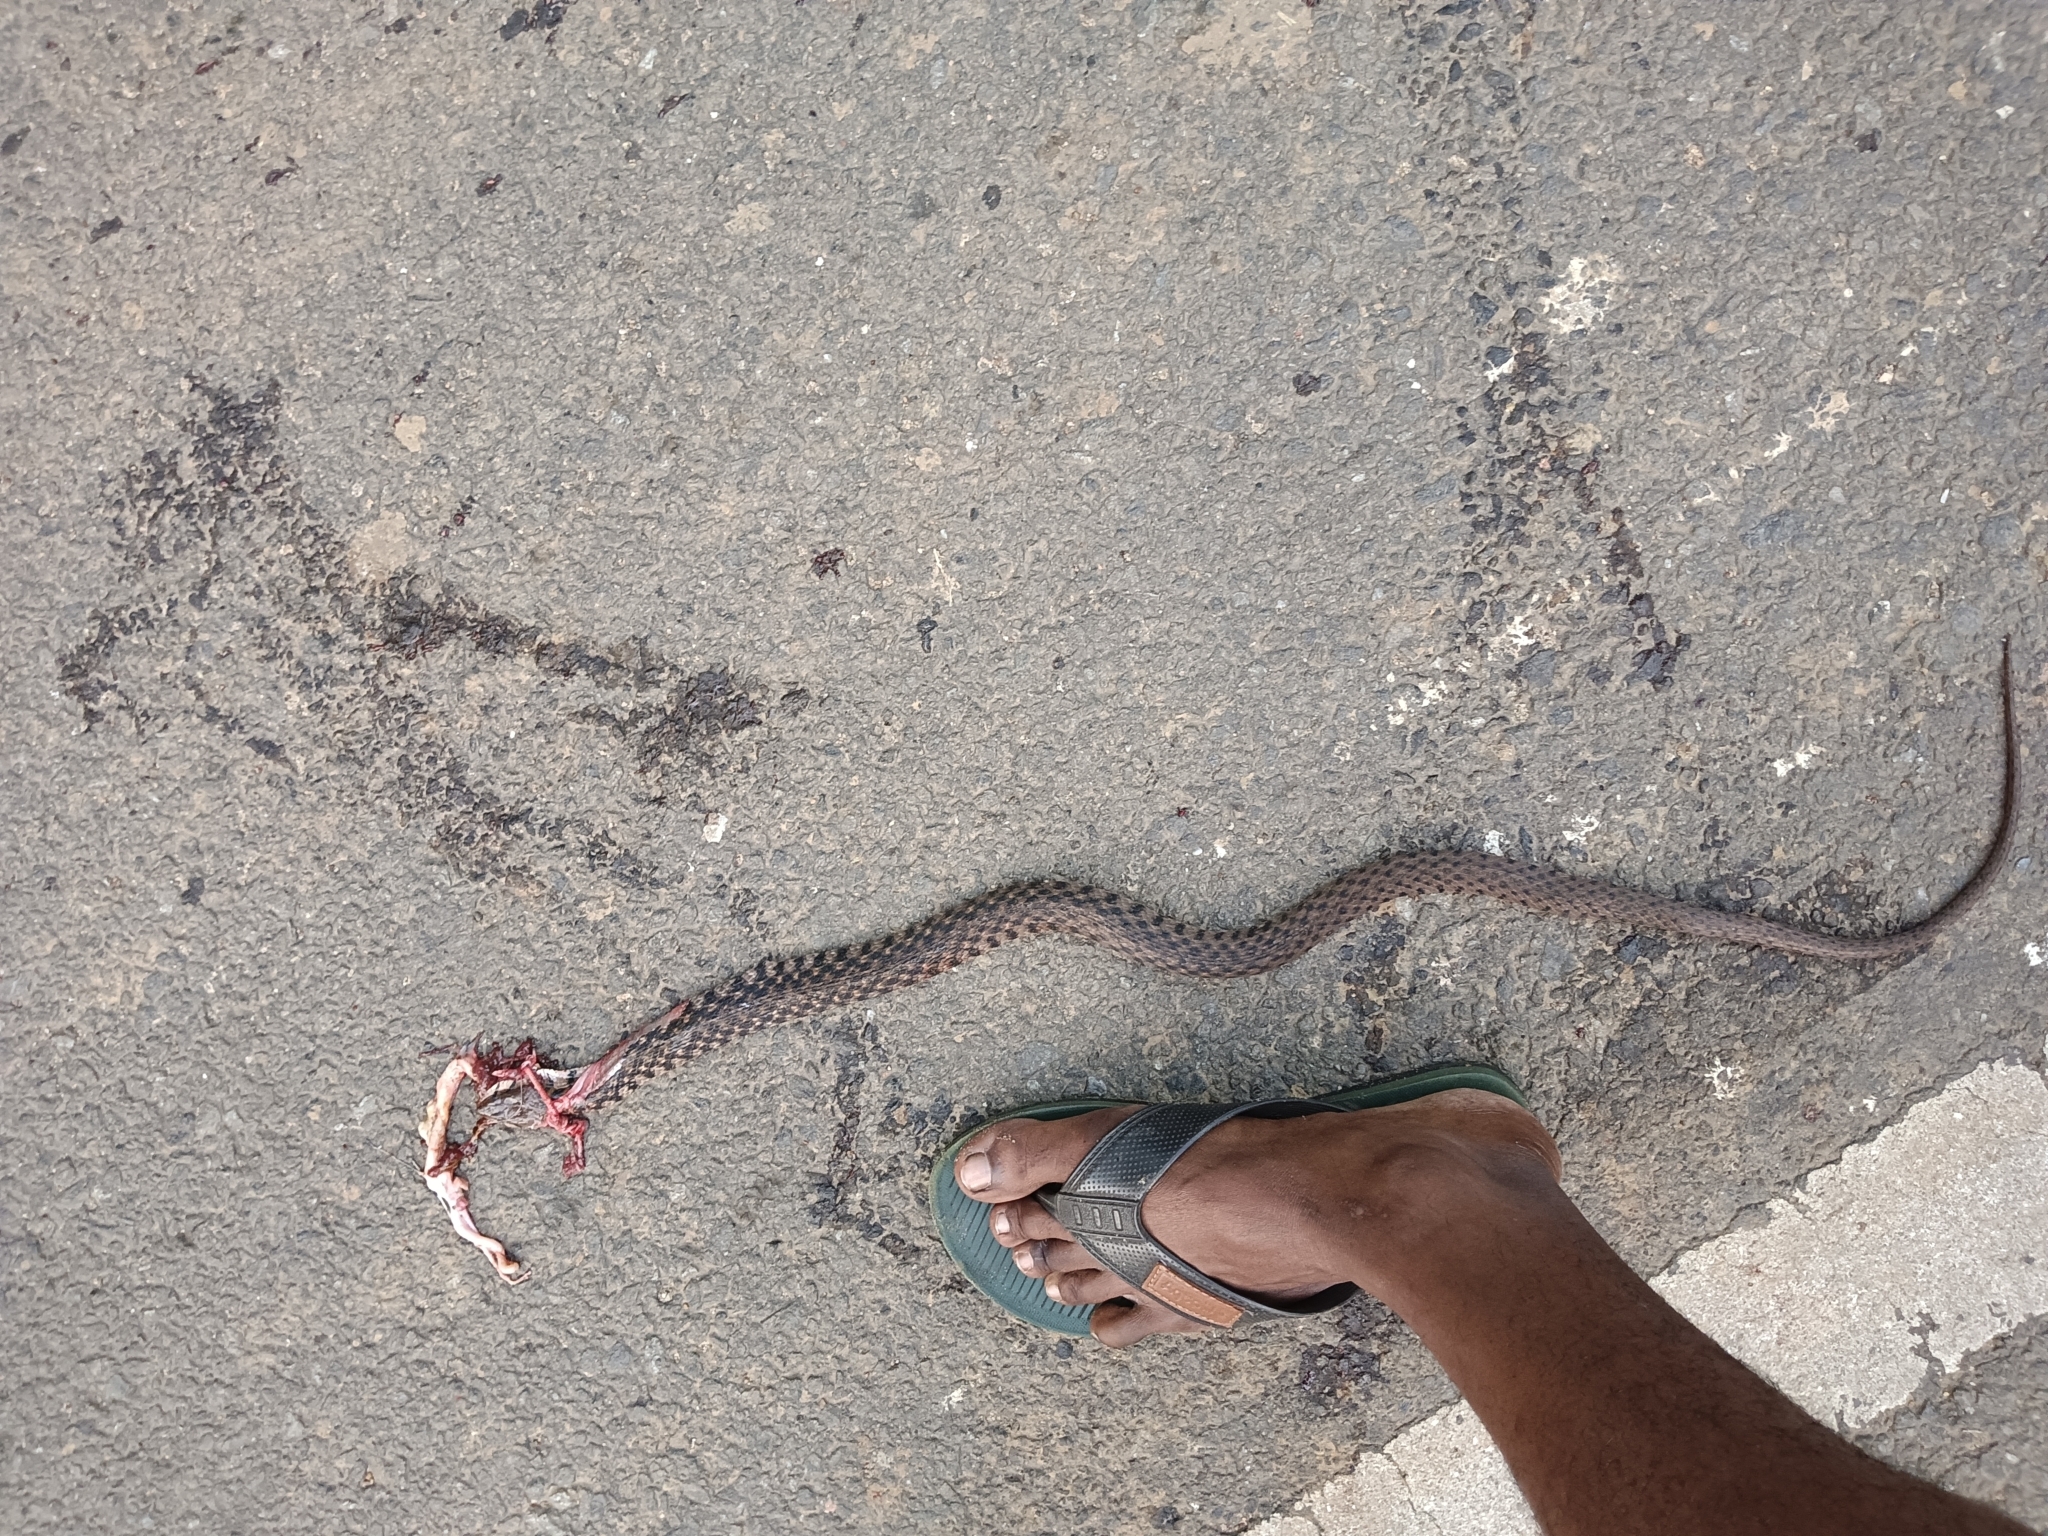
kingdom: Animalia
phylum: Chordata
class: Squamata
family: Colubridae
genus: Fowlea
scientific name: Fowlea piscator
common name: Asiatic water snake
